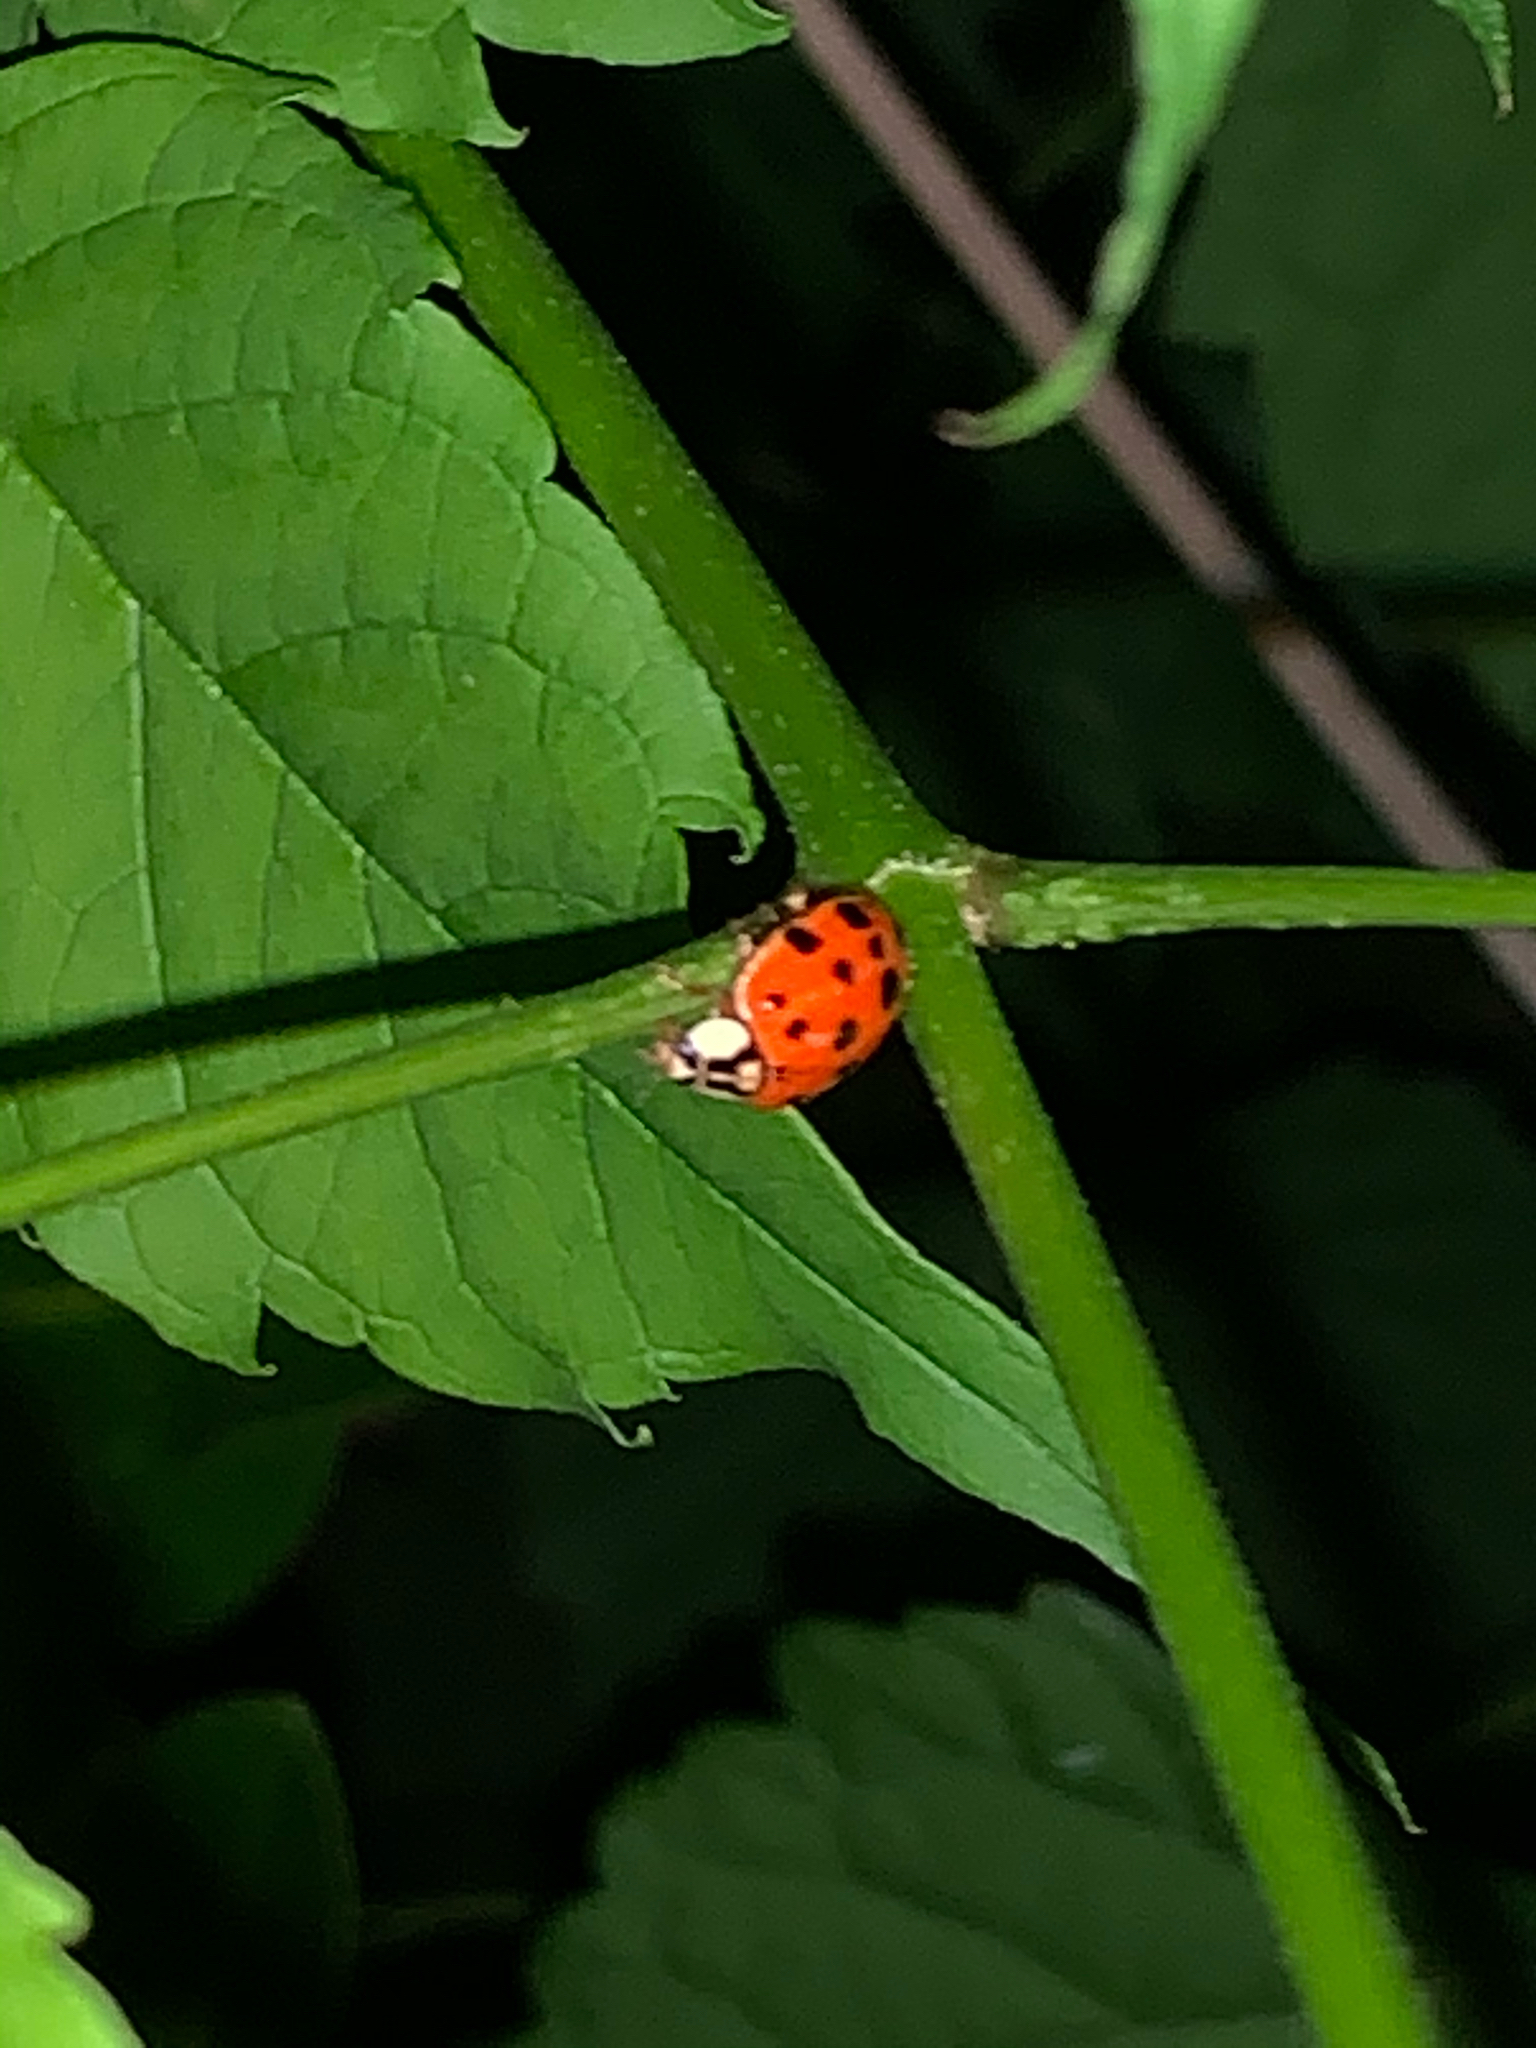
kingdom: Animalia
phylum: Arthropoda
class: Insecta
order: Coleoptera
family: Coccinellidae
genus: Harmonia
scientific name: Harmonia axyridis
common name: Harlequin ladybird
